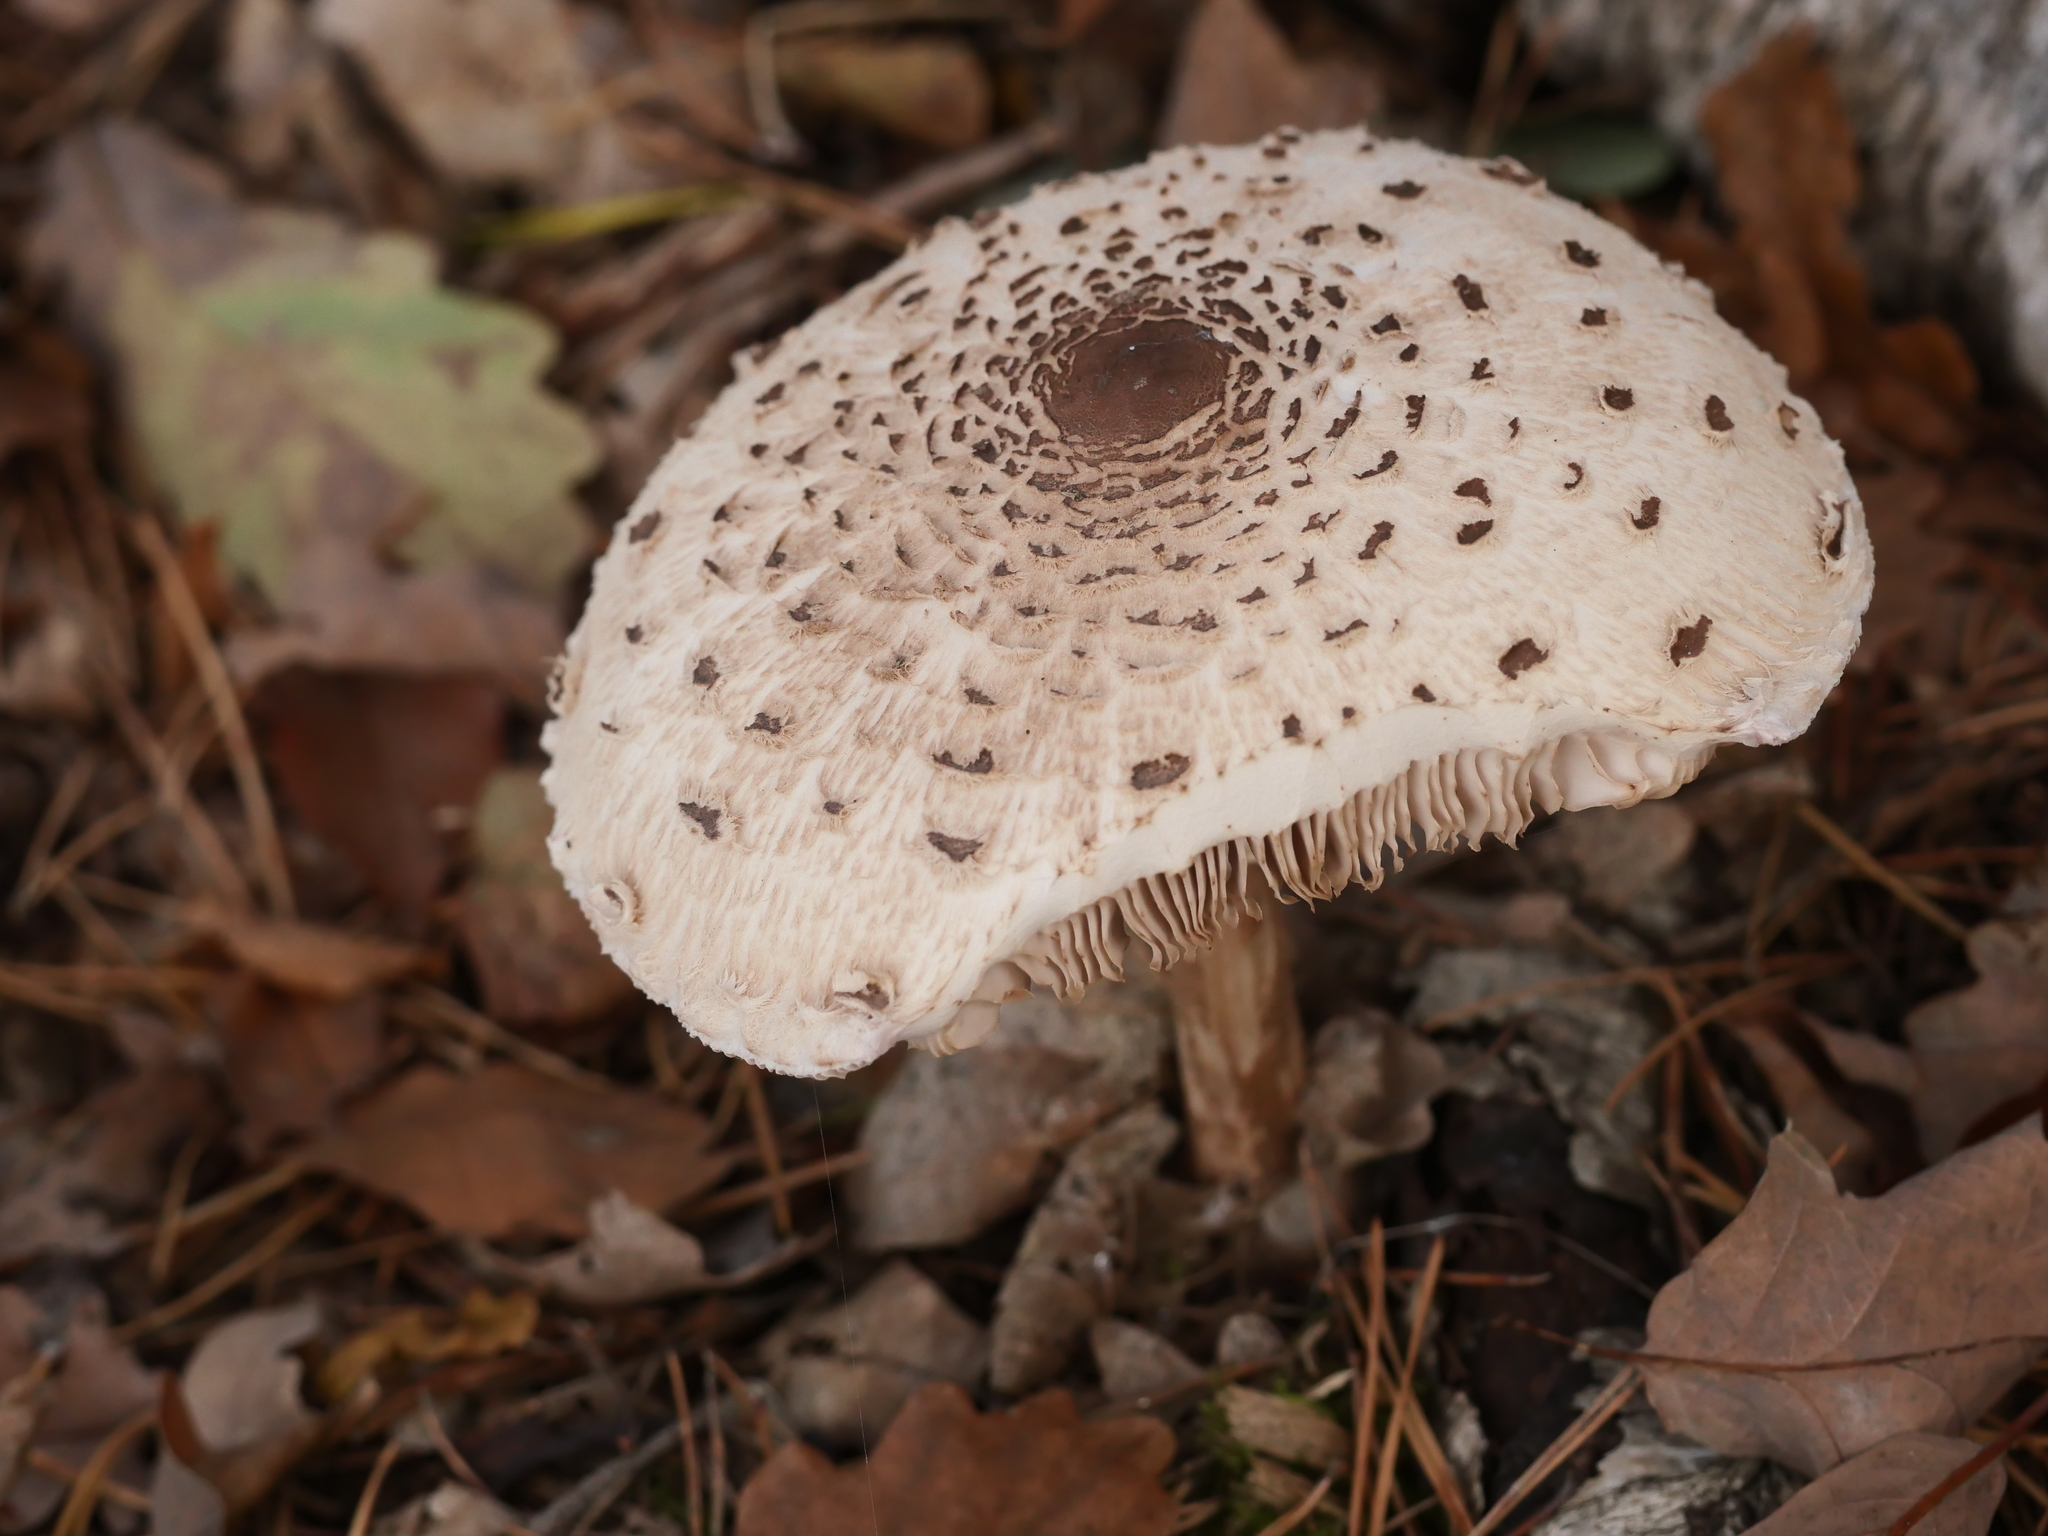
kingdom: Fungi
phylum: Basidiomycota
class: Agaricomycetes
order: Agaricales
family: Agaricaceae
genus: Macrolepiota
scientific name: Macrolepiota procera
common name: Parasol
